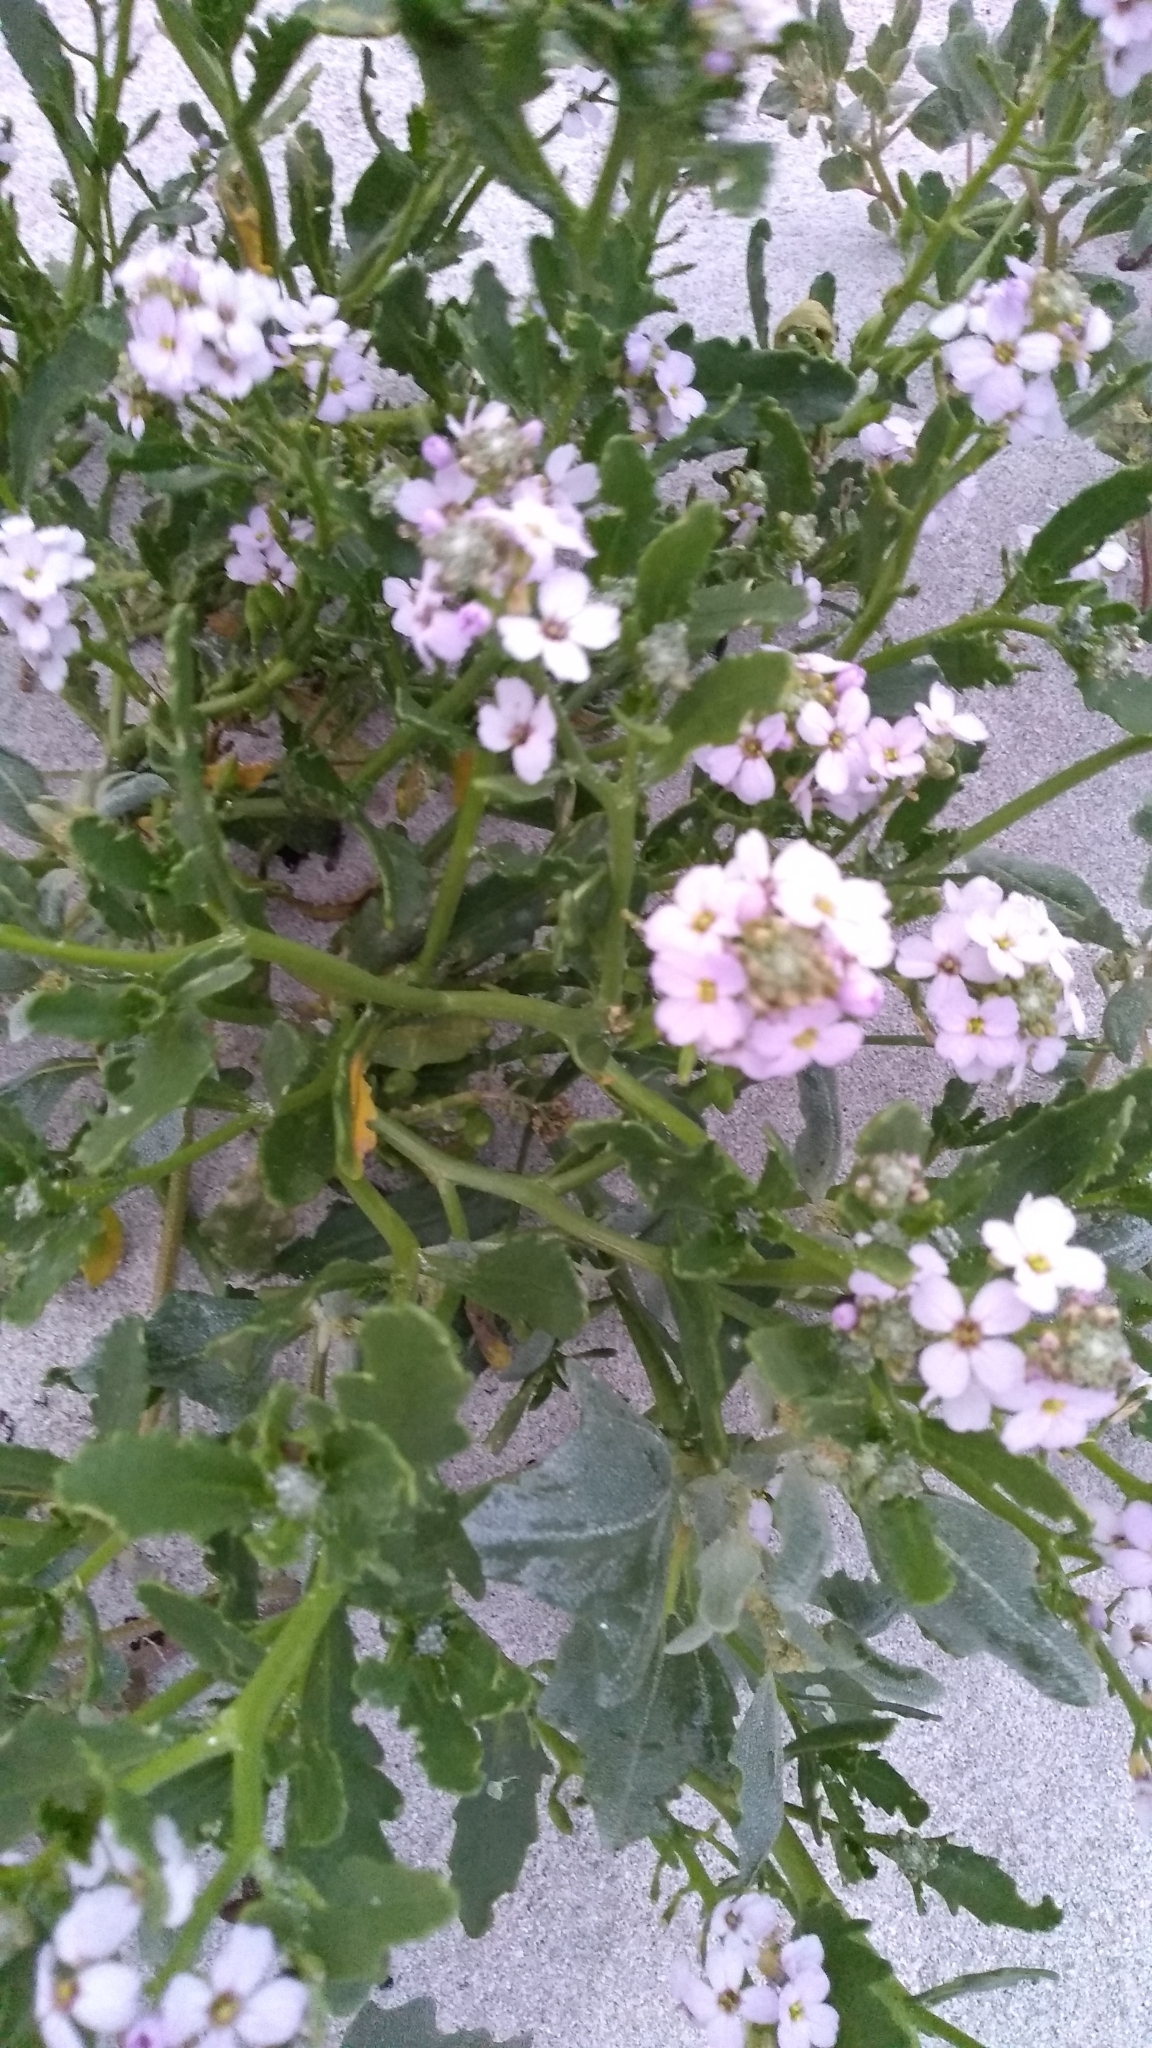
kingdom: Plantae
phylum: Tracheophyta
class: Magnoliopsida
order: Brassicales
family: Brassicaceae
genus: Cakile
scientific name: Cakile maritima
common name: Sea rocket
